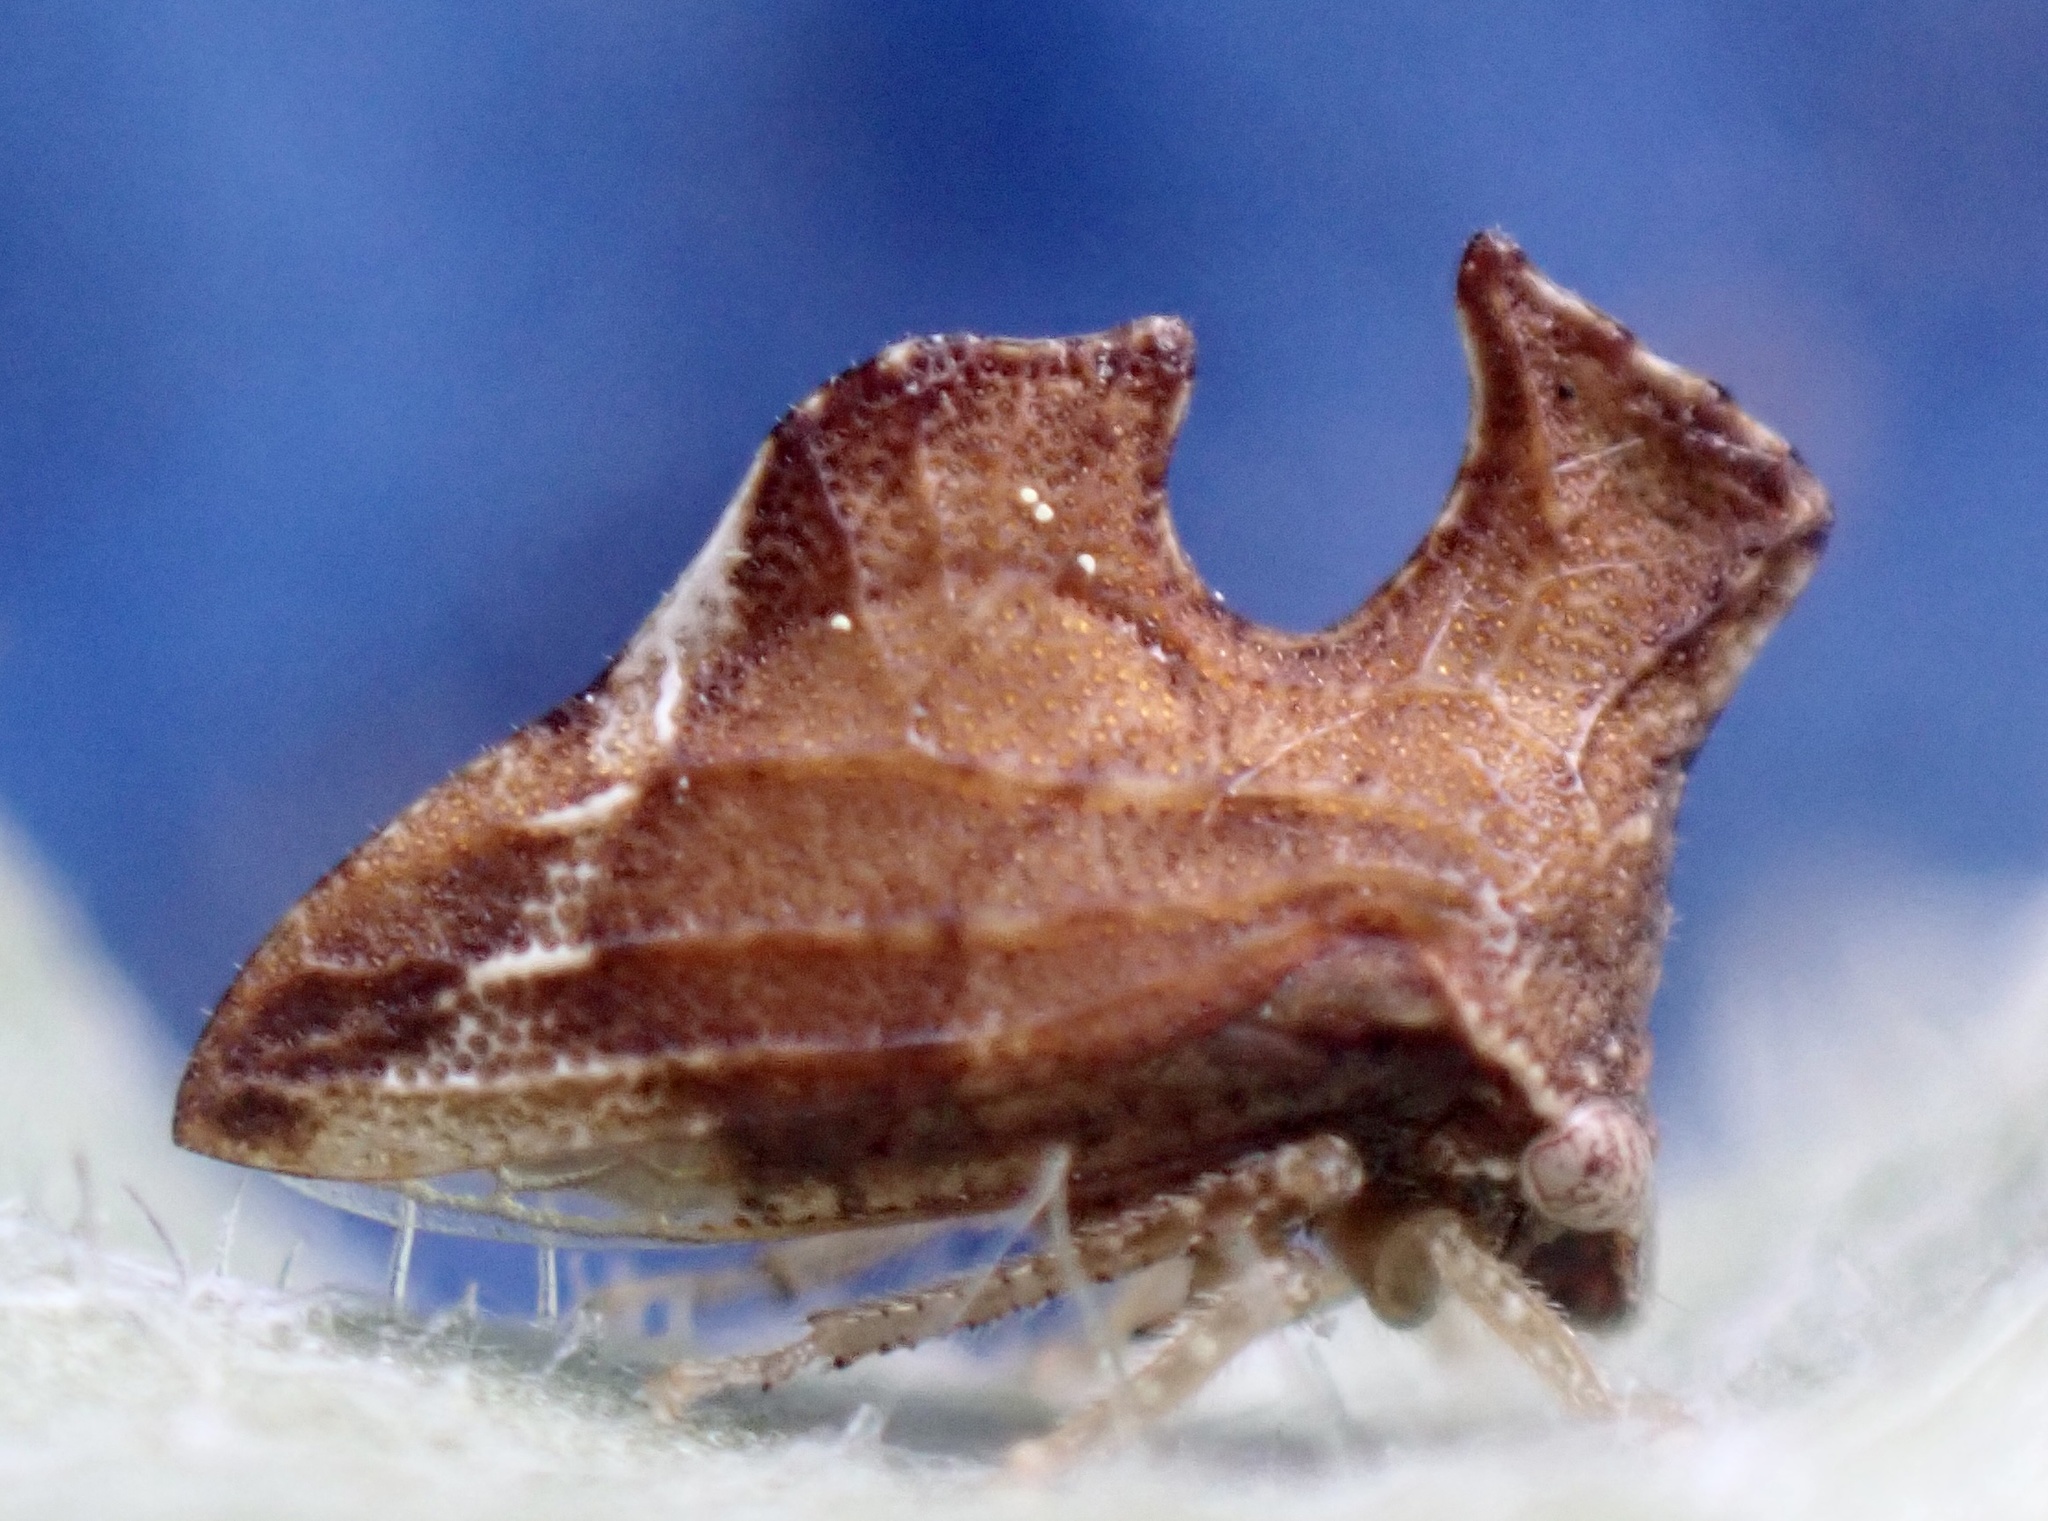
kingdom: Animalia
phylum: Arthropoda
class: Insecta
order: Hemiptera
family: Membracidae
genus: Entylia
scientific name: Entylia carinata
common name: Keeled treehopper
